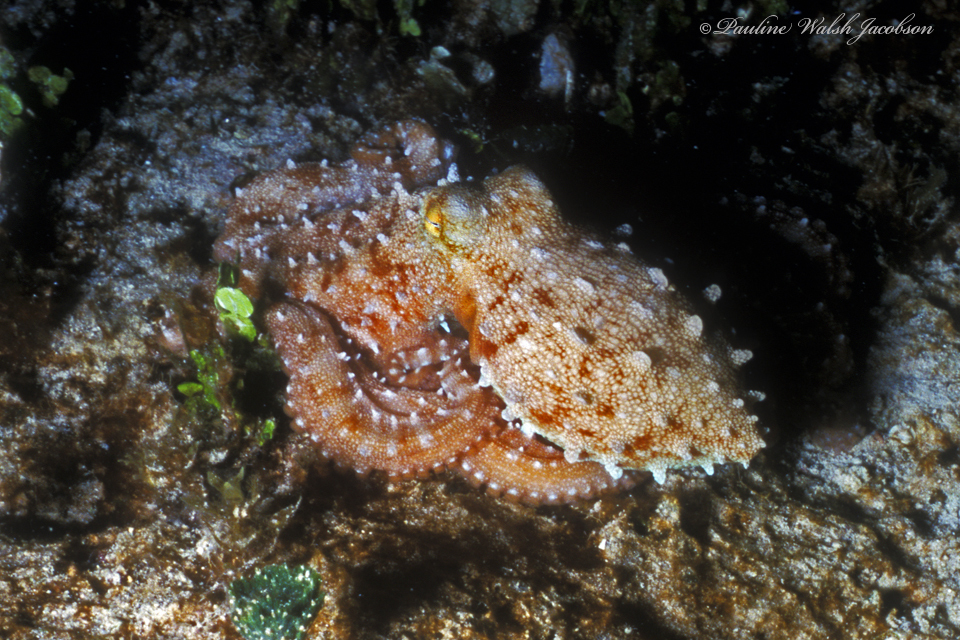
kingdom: Animalia
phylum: Mollusca
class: Cephalopoda
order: Octopoda
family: Octopodidae
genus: Callistoctopus
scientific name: Callistoctopus macropus
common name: Atlantic white-spotted octopus
